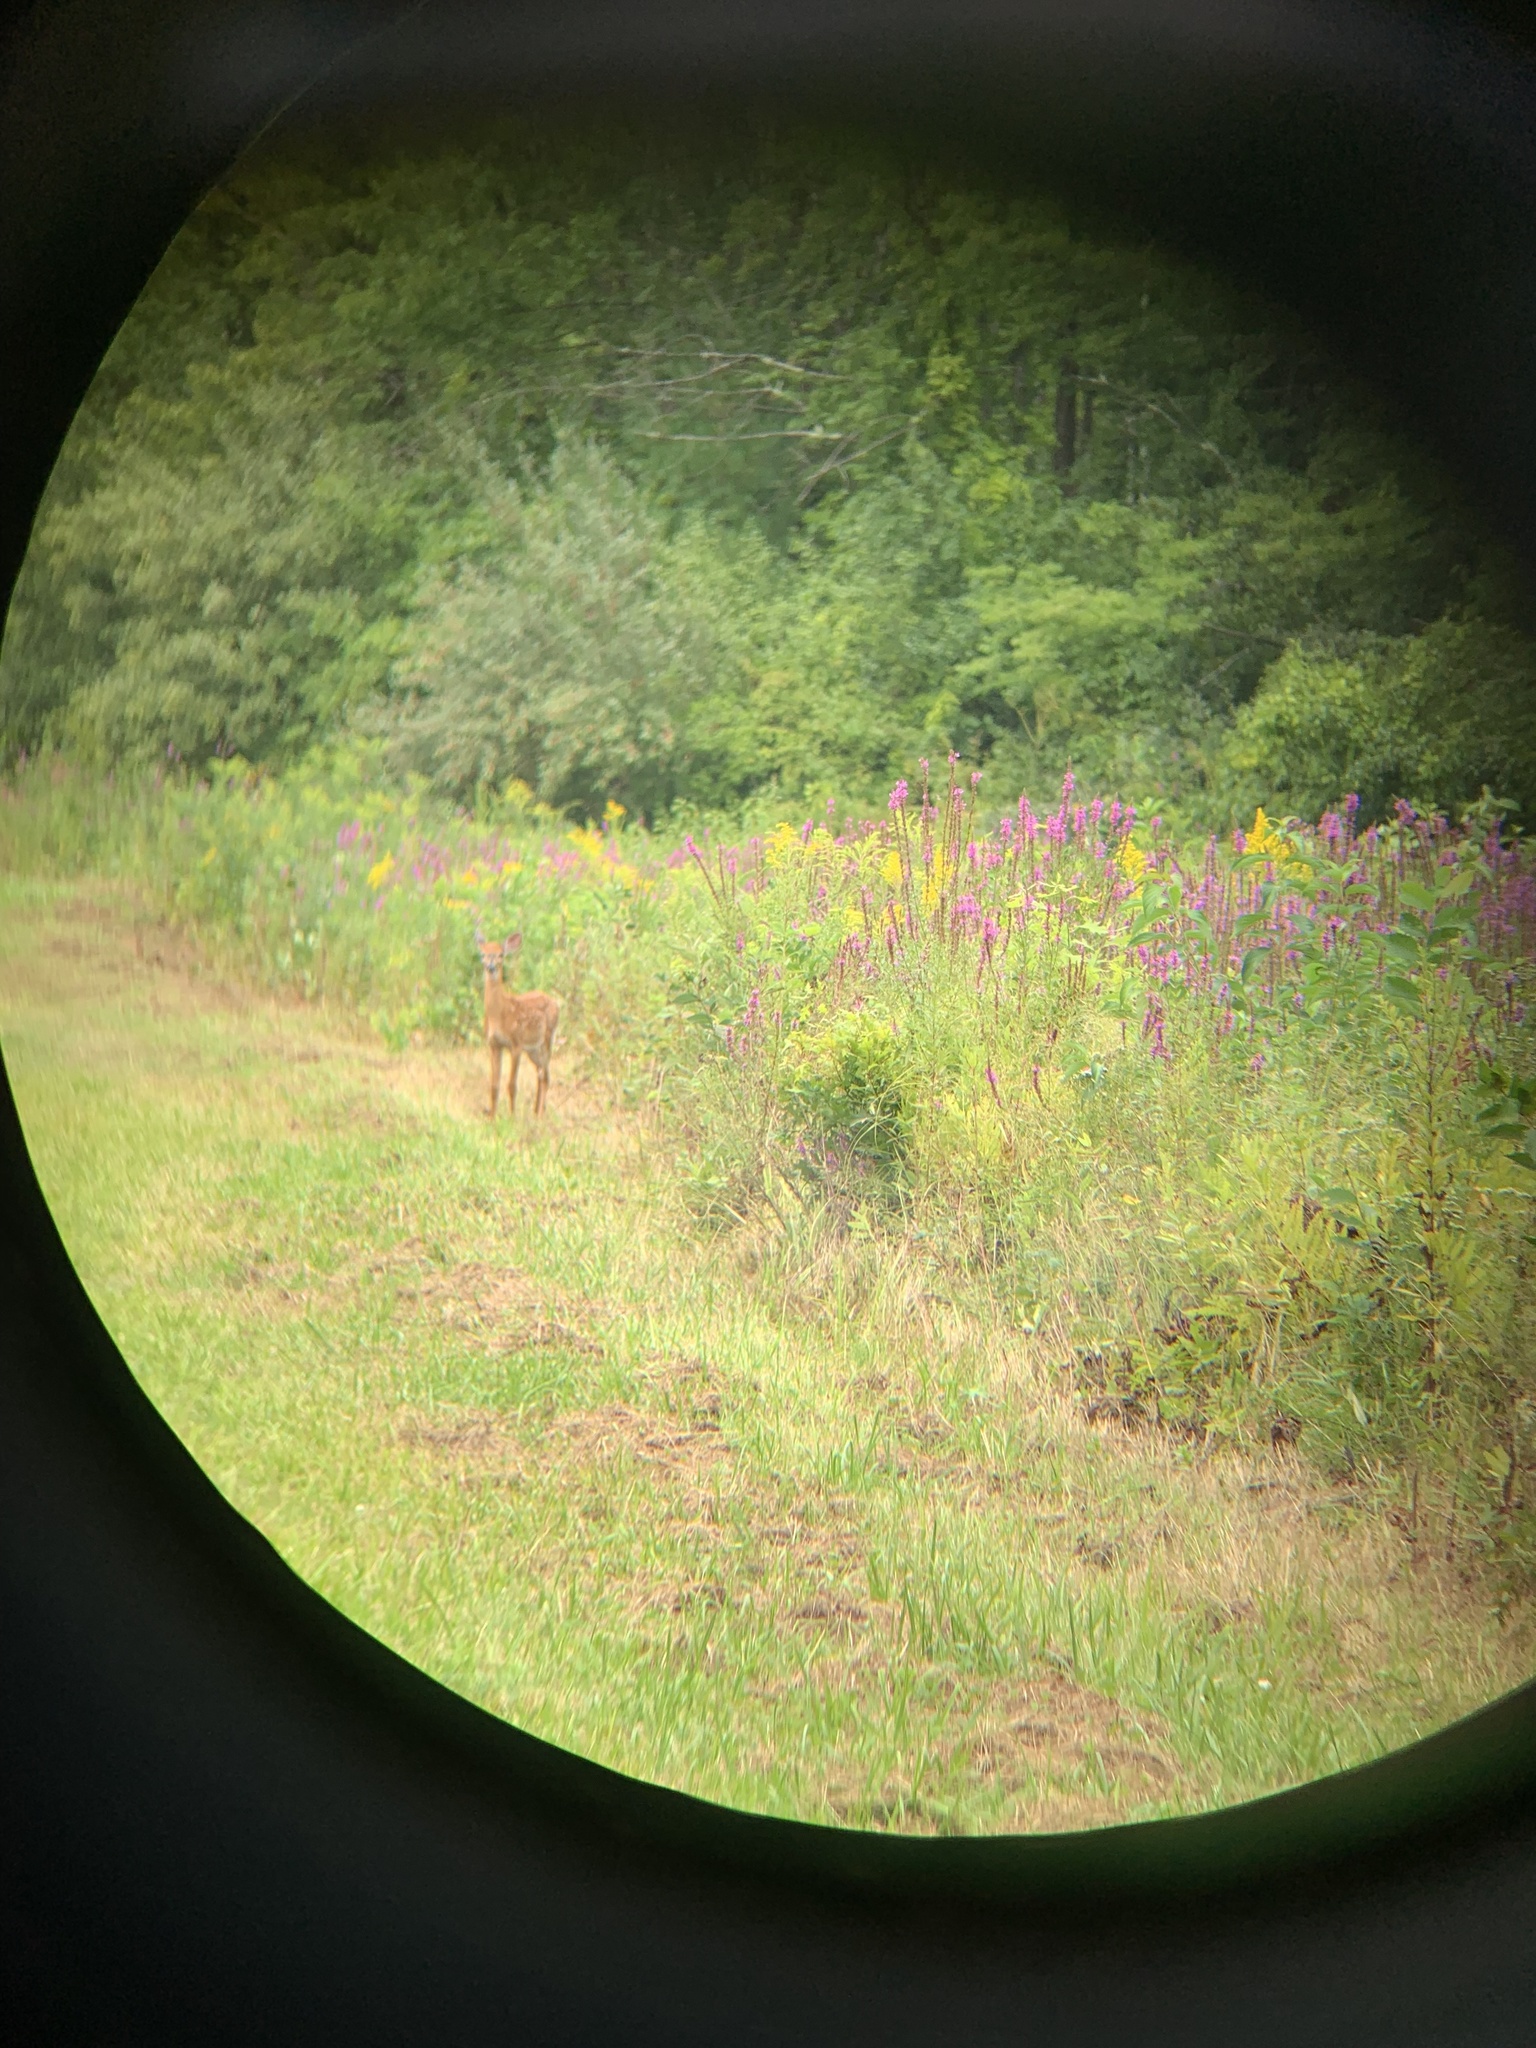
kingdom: Animalia
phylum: Chordata
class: Mammalia
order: Artiodactyla
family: Cervidae
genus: Odocoileus
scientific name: Odocoileus virginianus
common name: White-tailed deer
